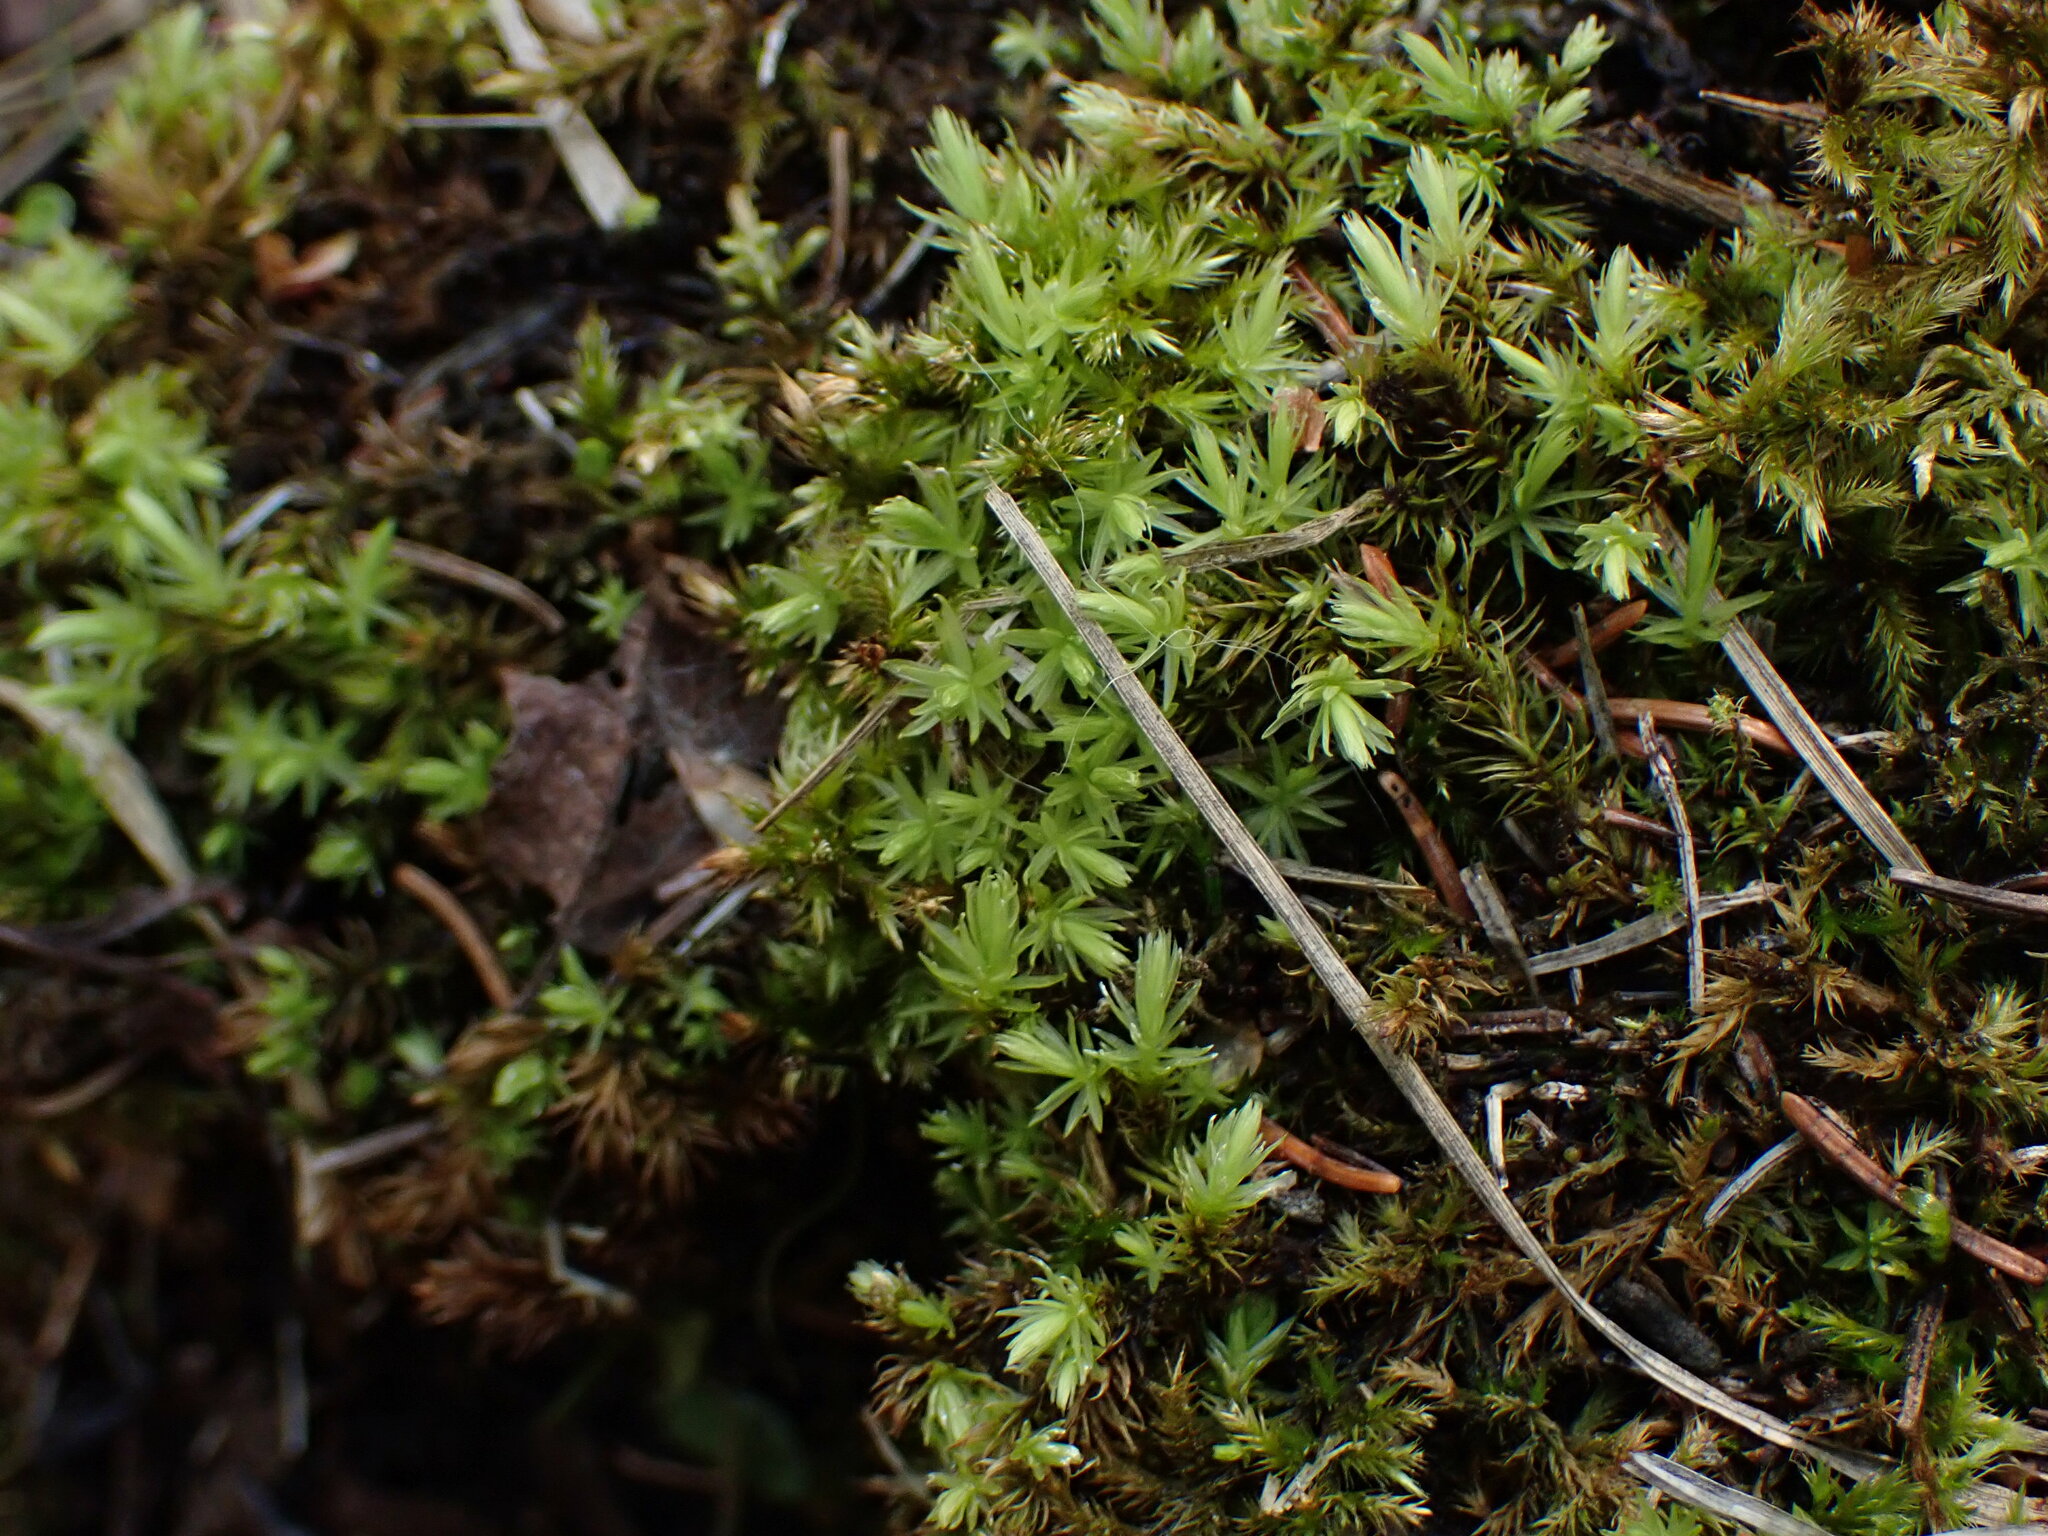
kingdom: Plantae
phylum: Bryophyta
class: Bryopsida
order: Aulacomniales
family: Aulacomniaceae
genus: Aulacomnium
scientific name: Aulacomnium palustre
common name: Bog groove-moss
